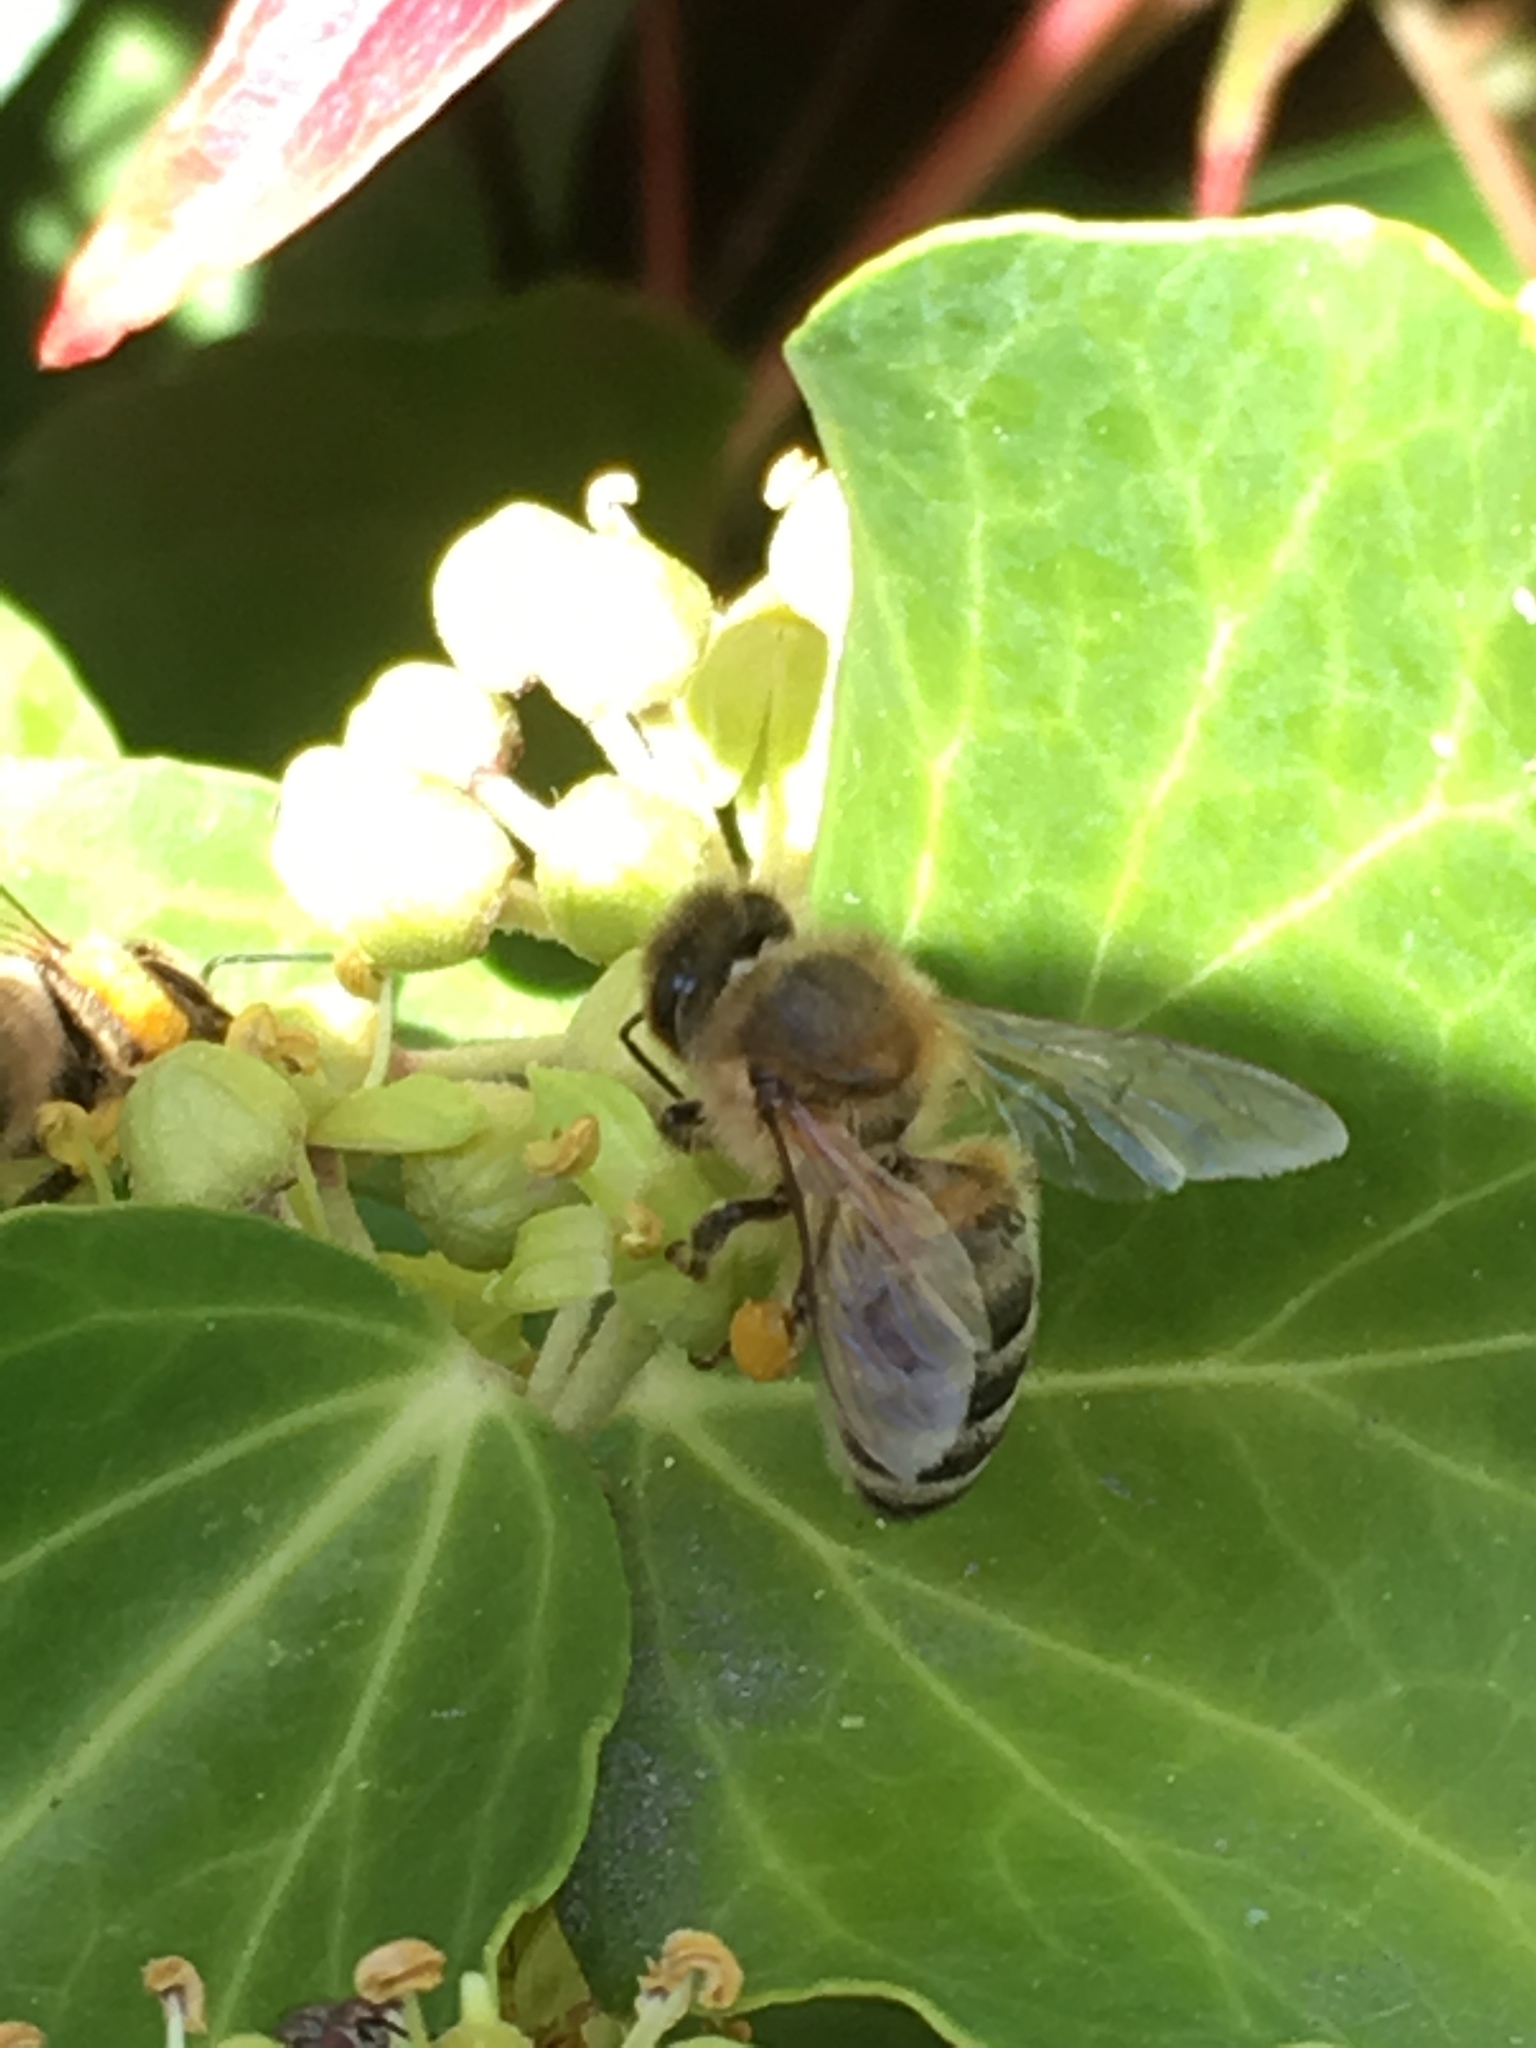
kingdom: Animalia
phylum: Arthropoda
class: Insecta
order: Hymenoptera
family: Apidae
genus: Apis
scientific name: Apis mellifera
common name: Honey bee
